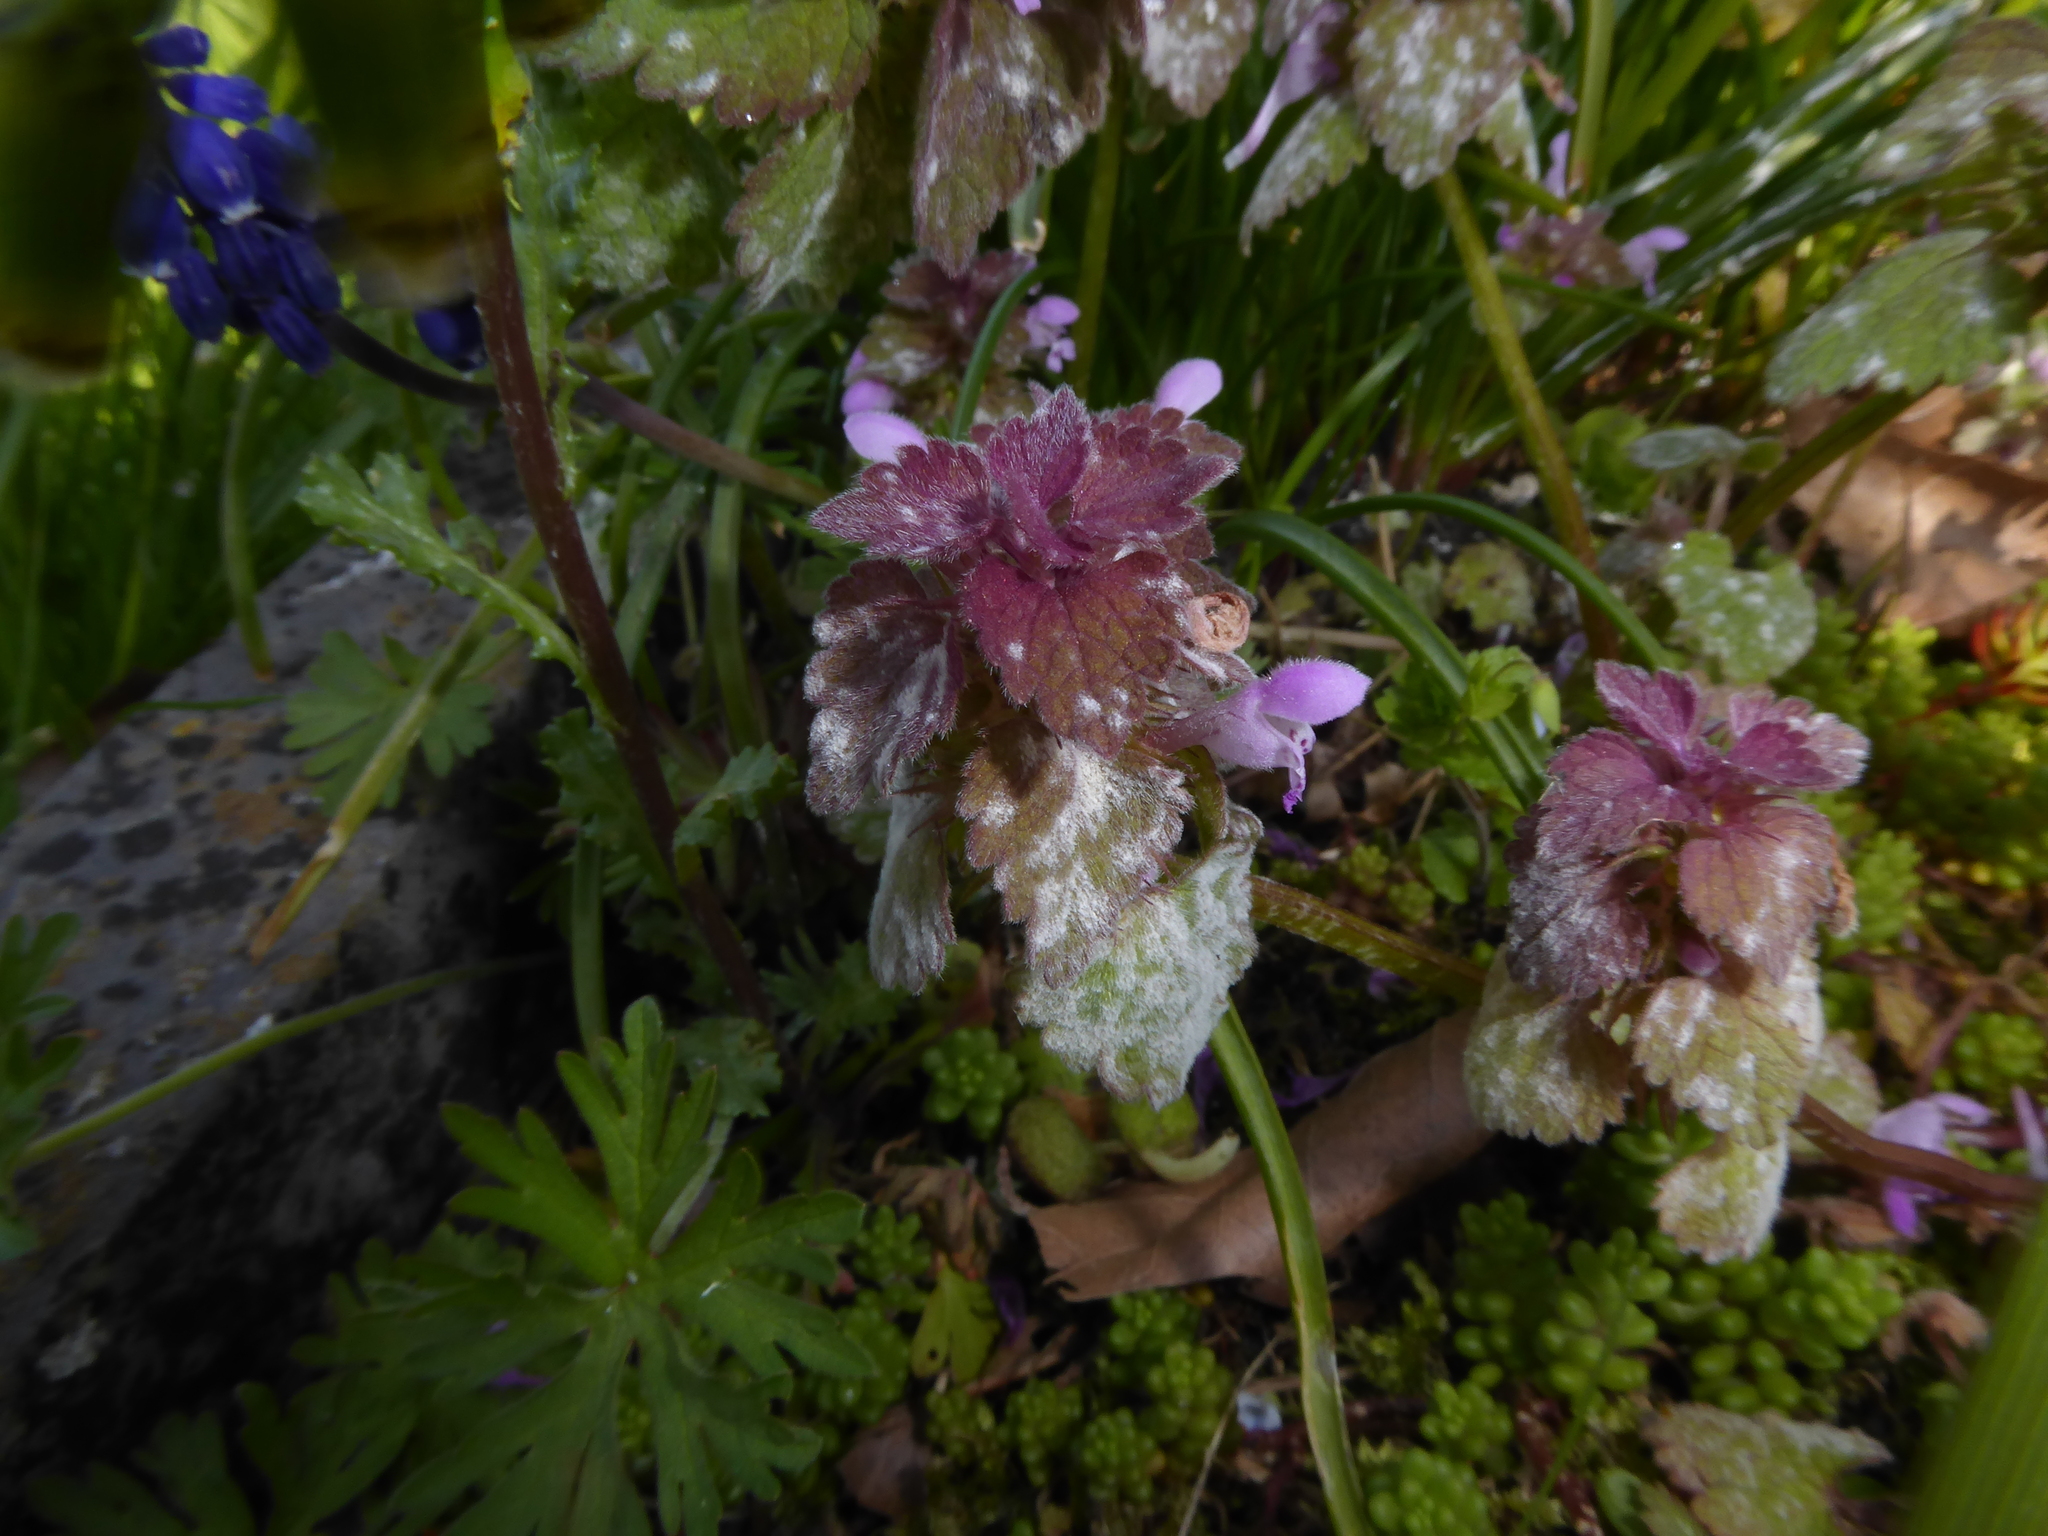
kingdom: Plantae
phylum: Tracheophyta
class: Magnoliopsida
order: Lamiales
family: Lamiaceae
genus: Lamium
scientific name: Lamium purpureum
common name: Red dead-nettle
